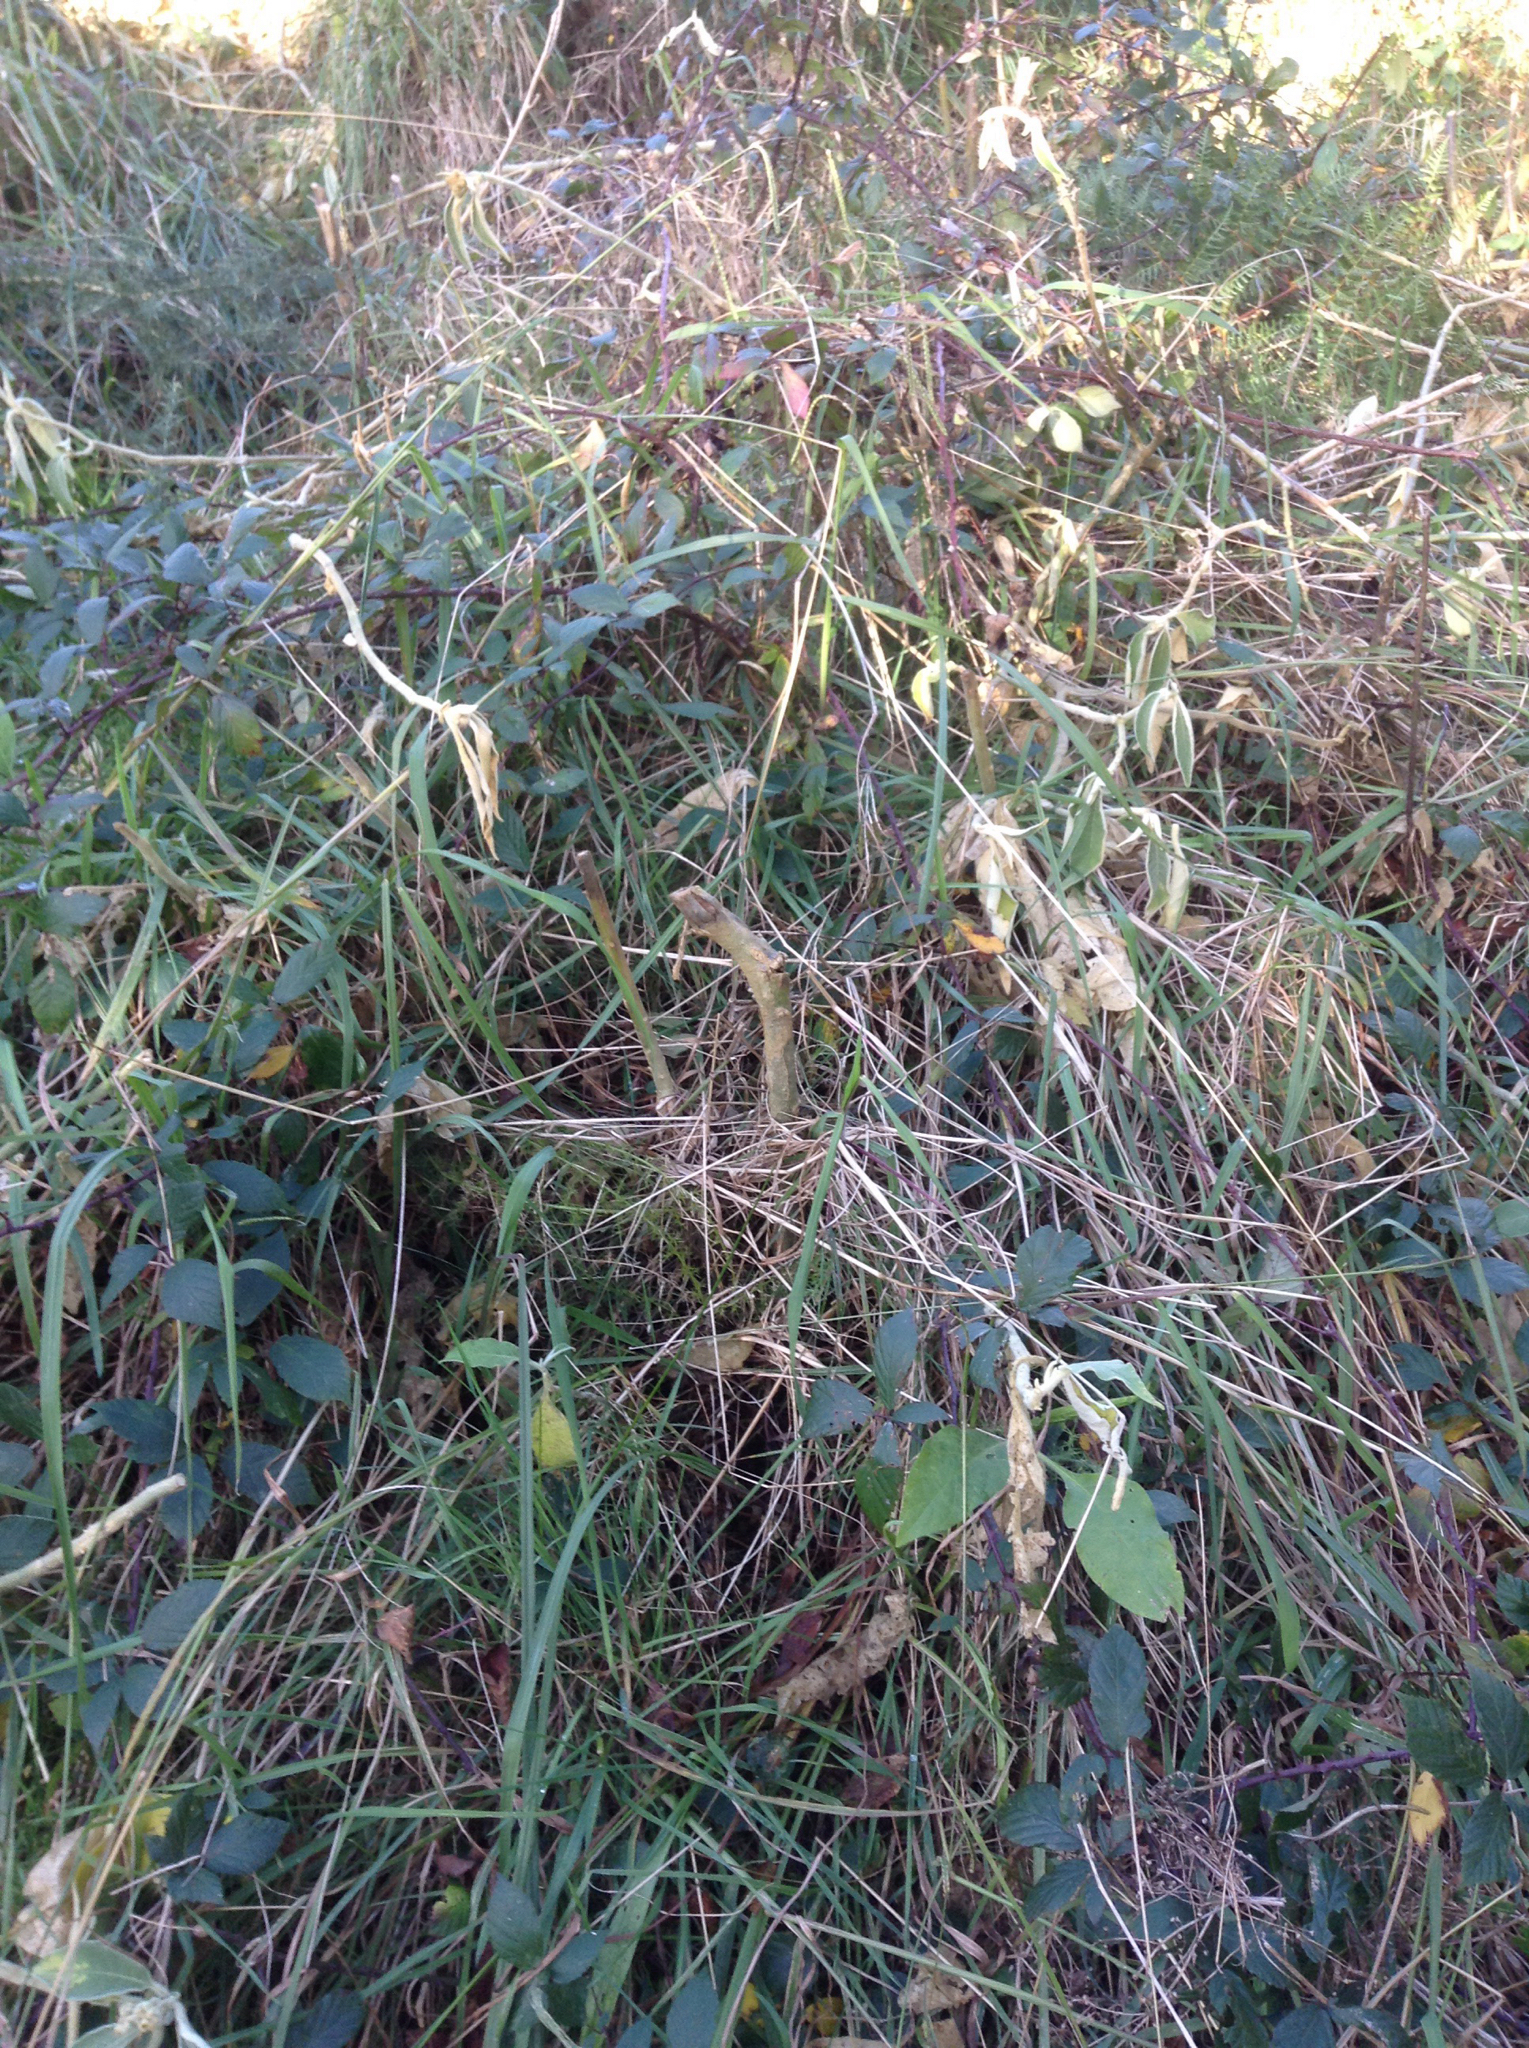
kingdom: Plantae
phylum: Tracheophyta
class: Magnoliopsida
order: Solanales
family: Solanaceae
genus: Solanum
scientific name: Solanum mauritianum
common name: Earleaf nightshade
